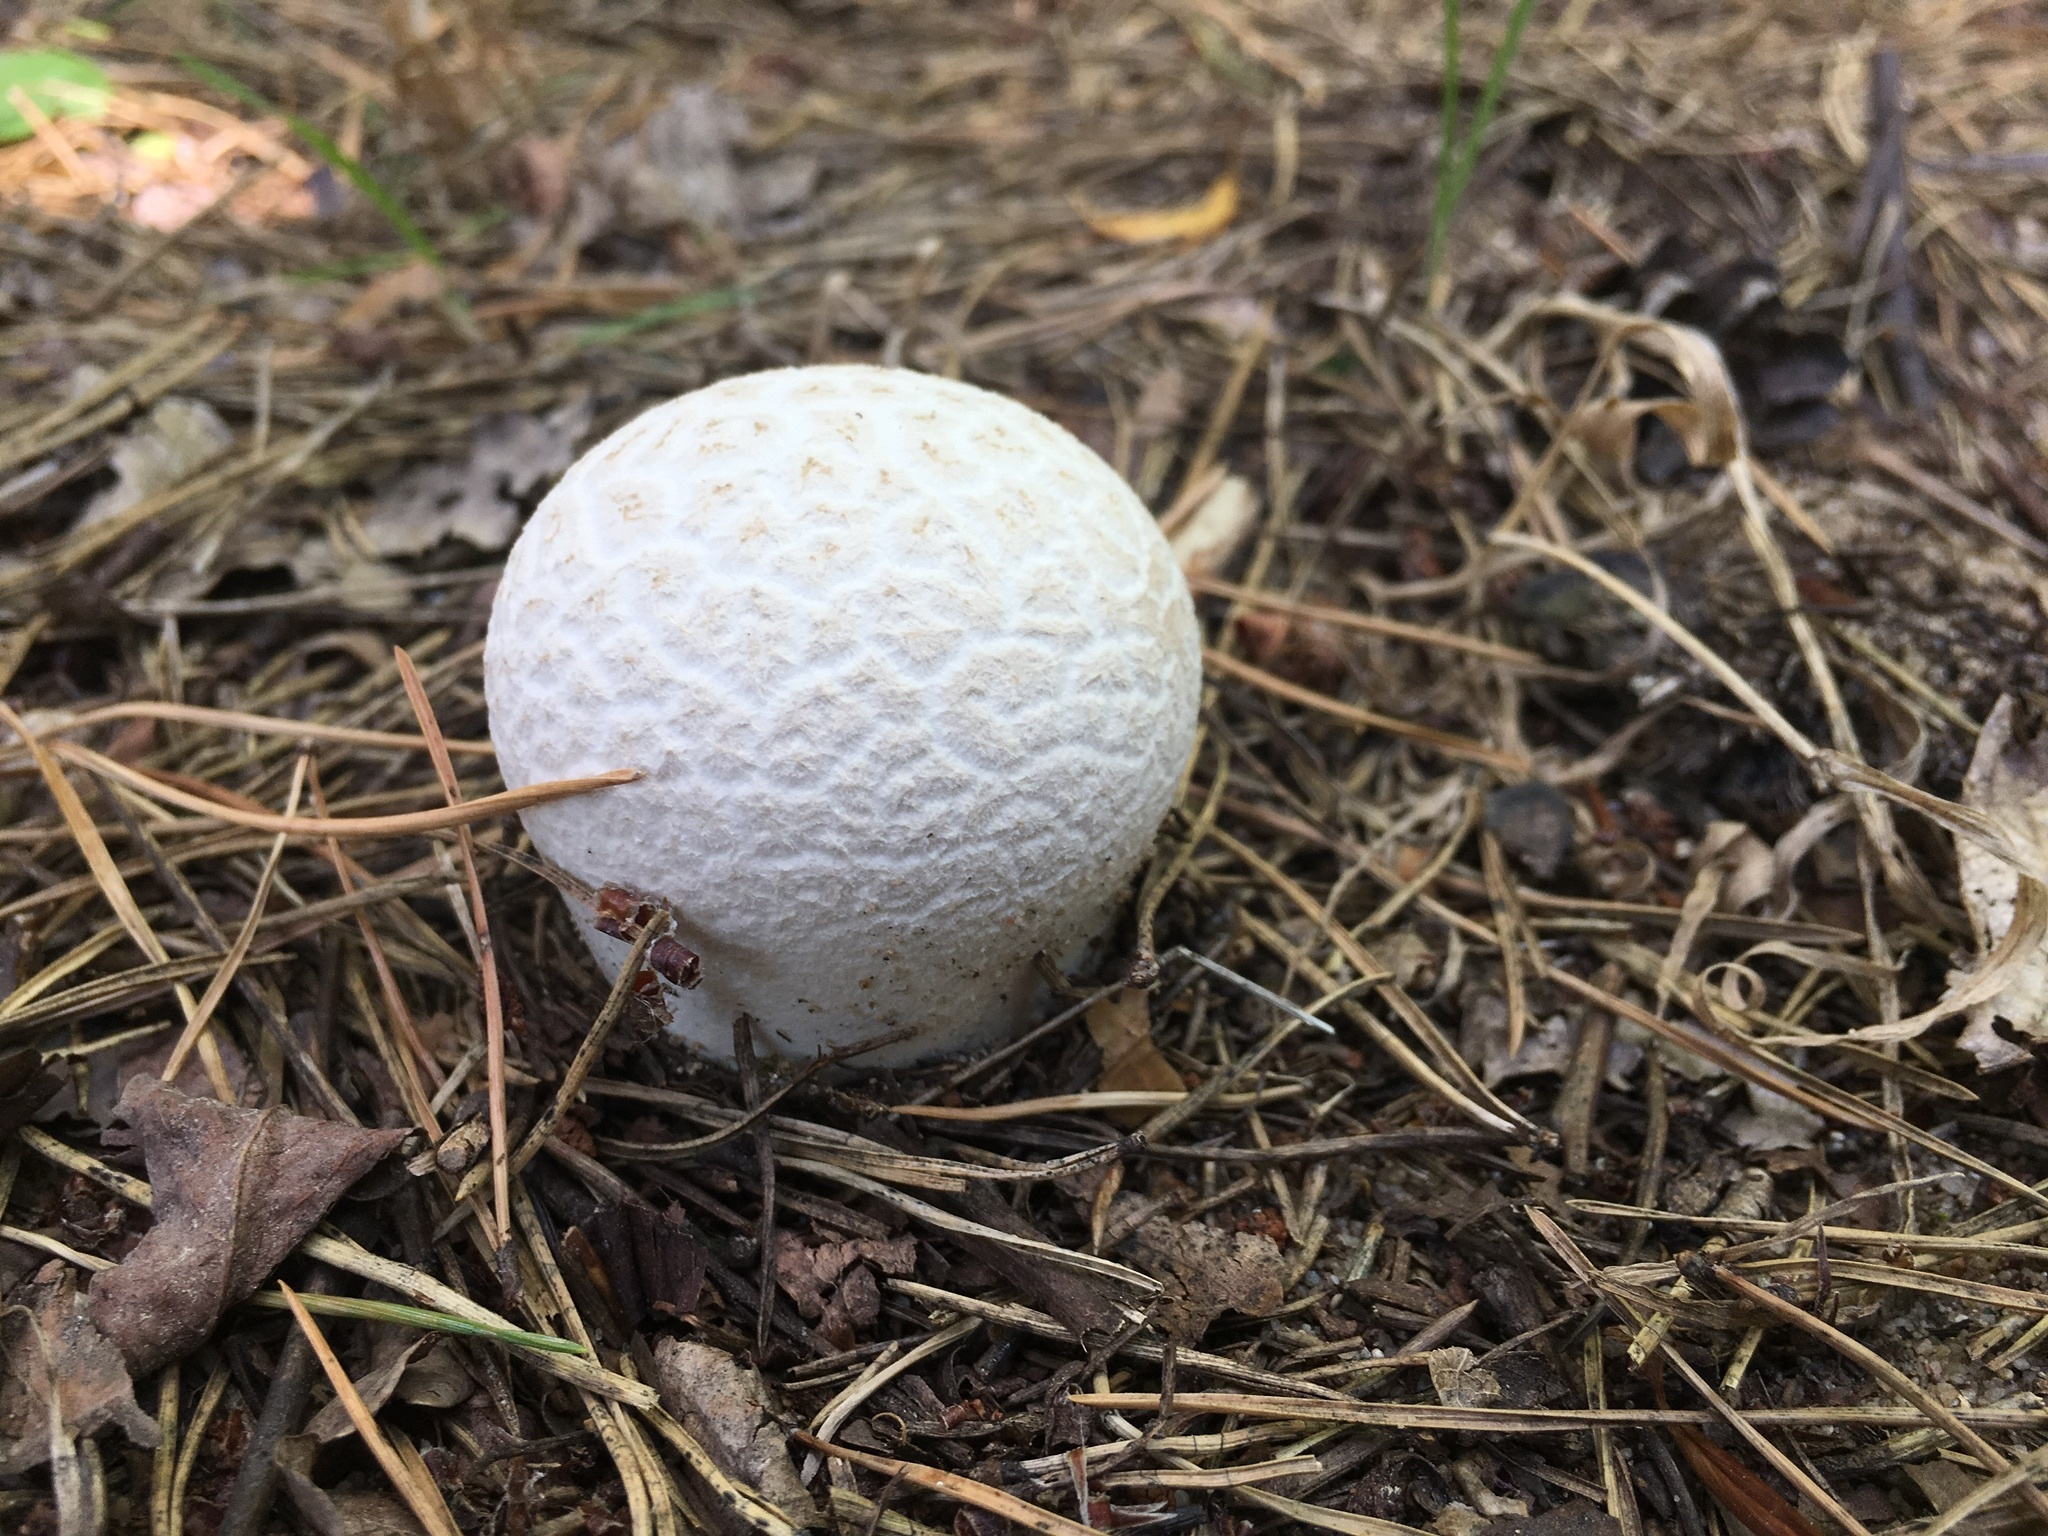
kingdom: Fungi
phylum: Basidiomycota
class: Agaricomycetes
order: Agaricales
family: Lycoperdaceae
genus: Bovistella
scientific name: Bovistella utriformis
